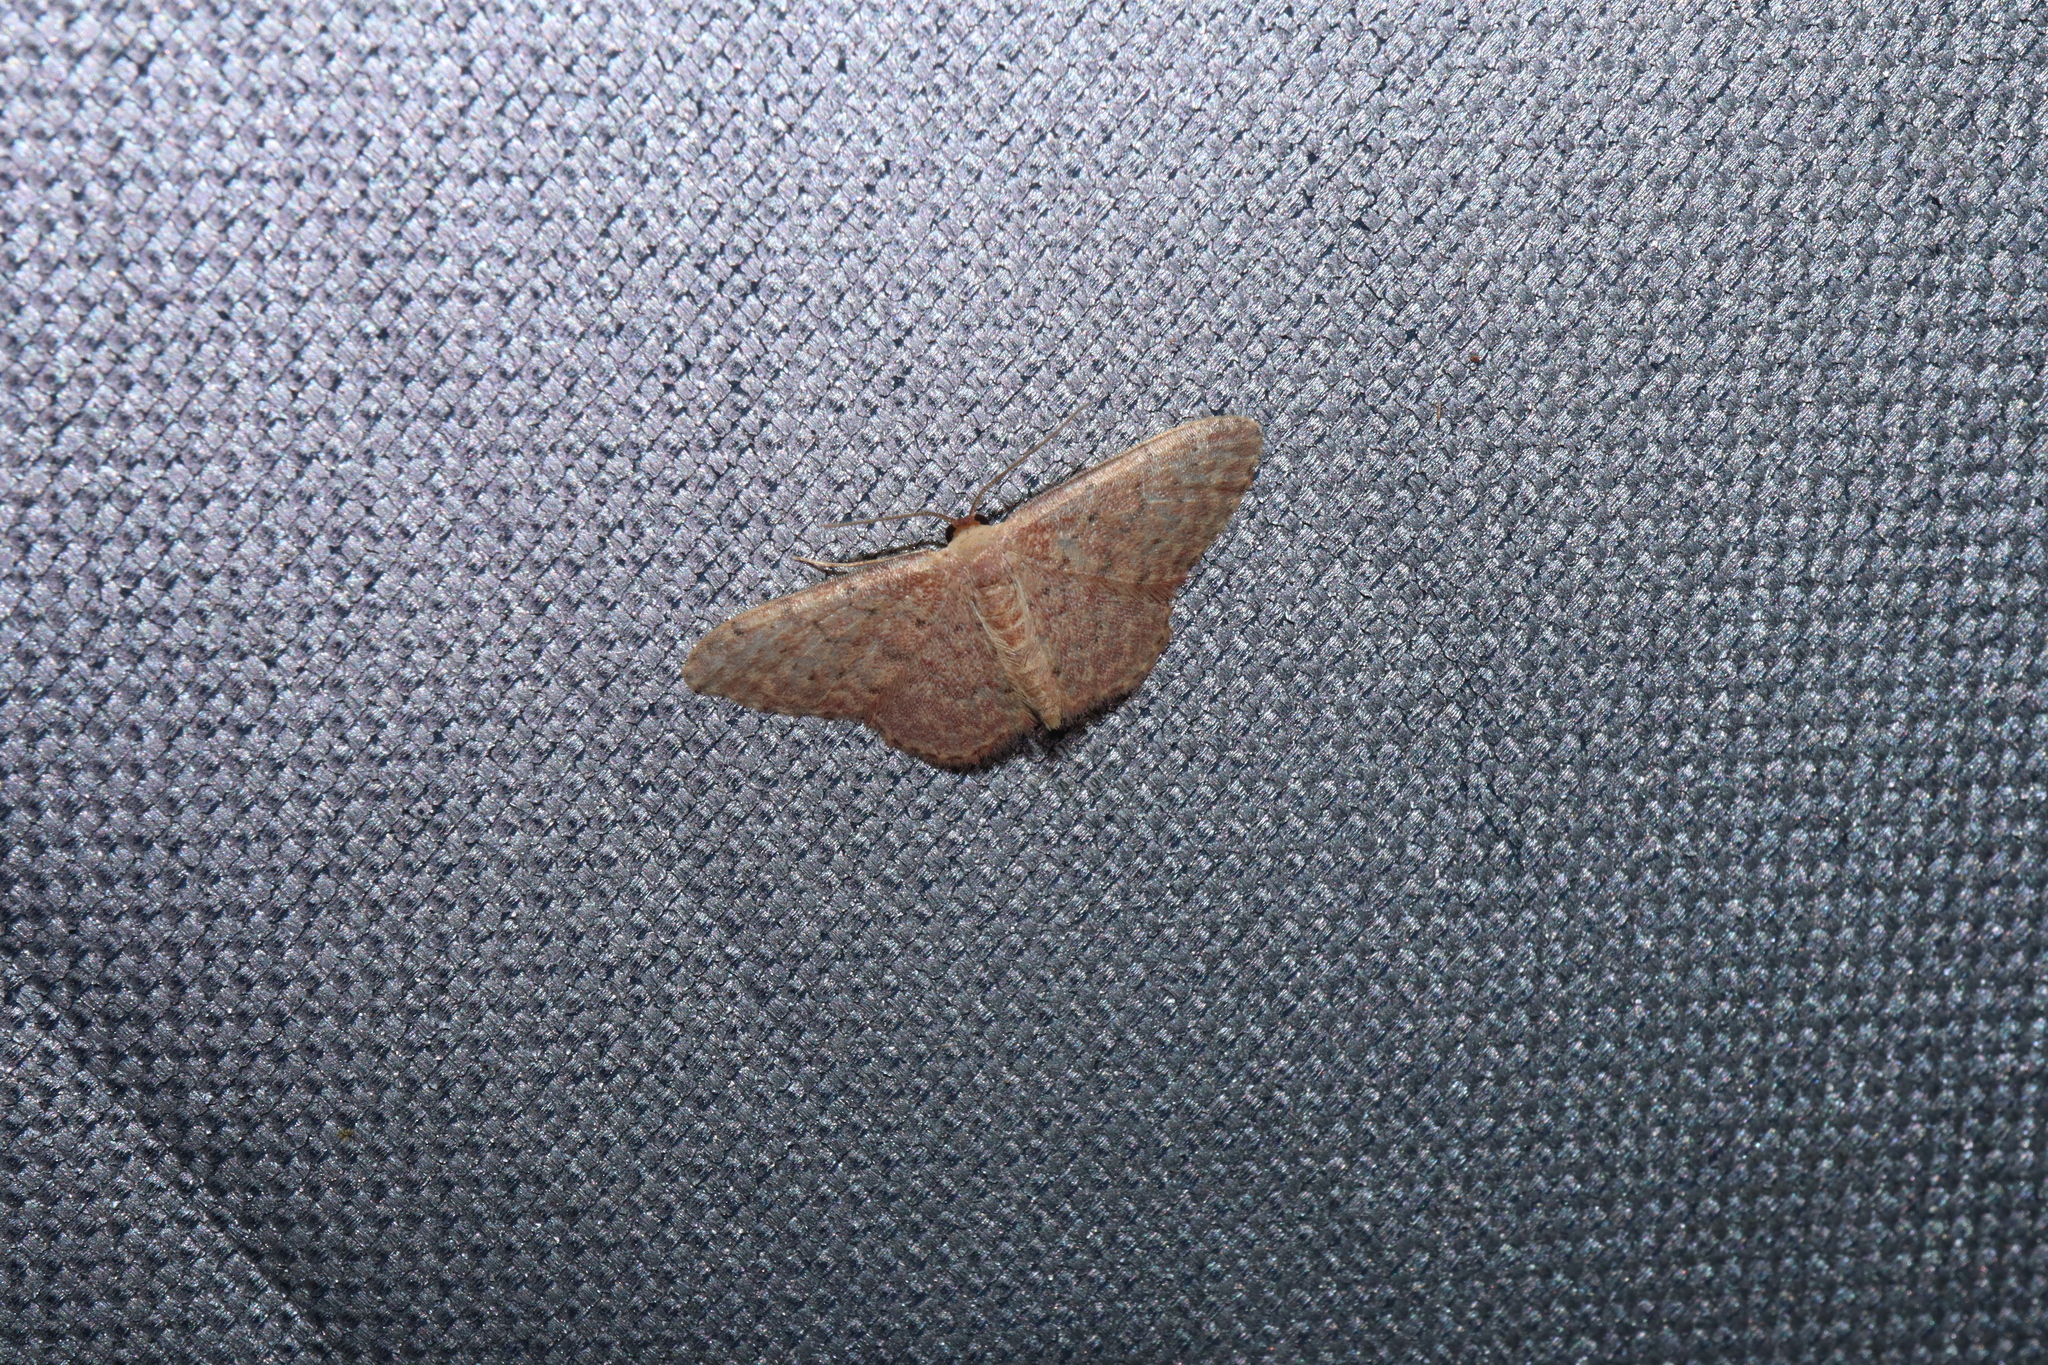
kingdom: Animalia
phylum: Arthropoda
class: Insecta
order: Lepidoptera
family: Geometridae
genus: Idaea
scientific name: Idaea trissorma
